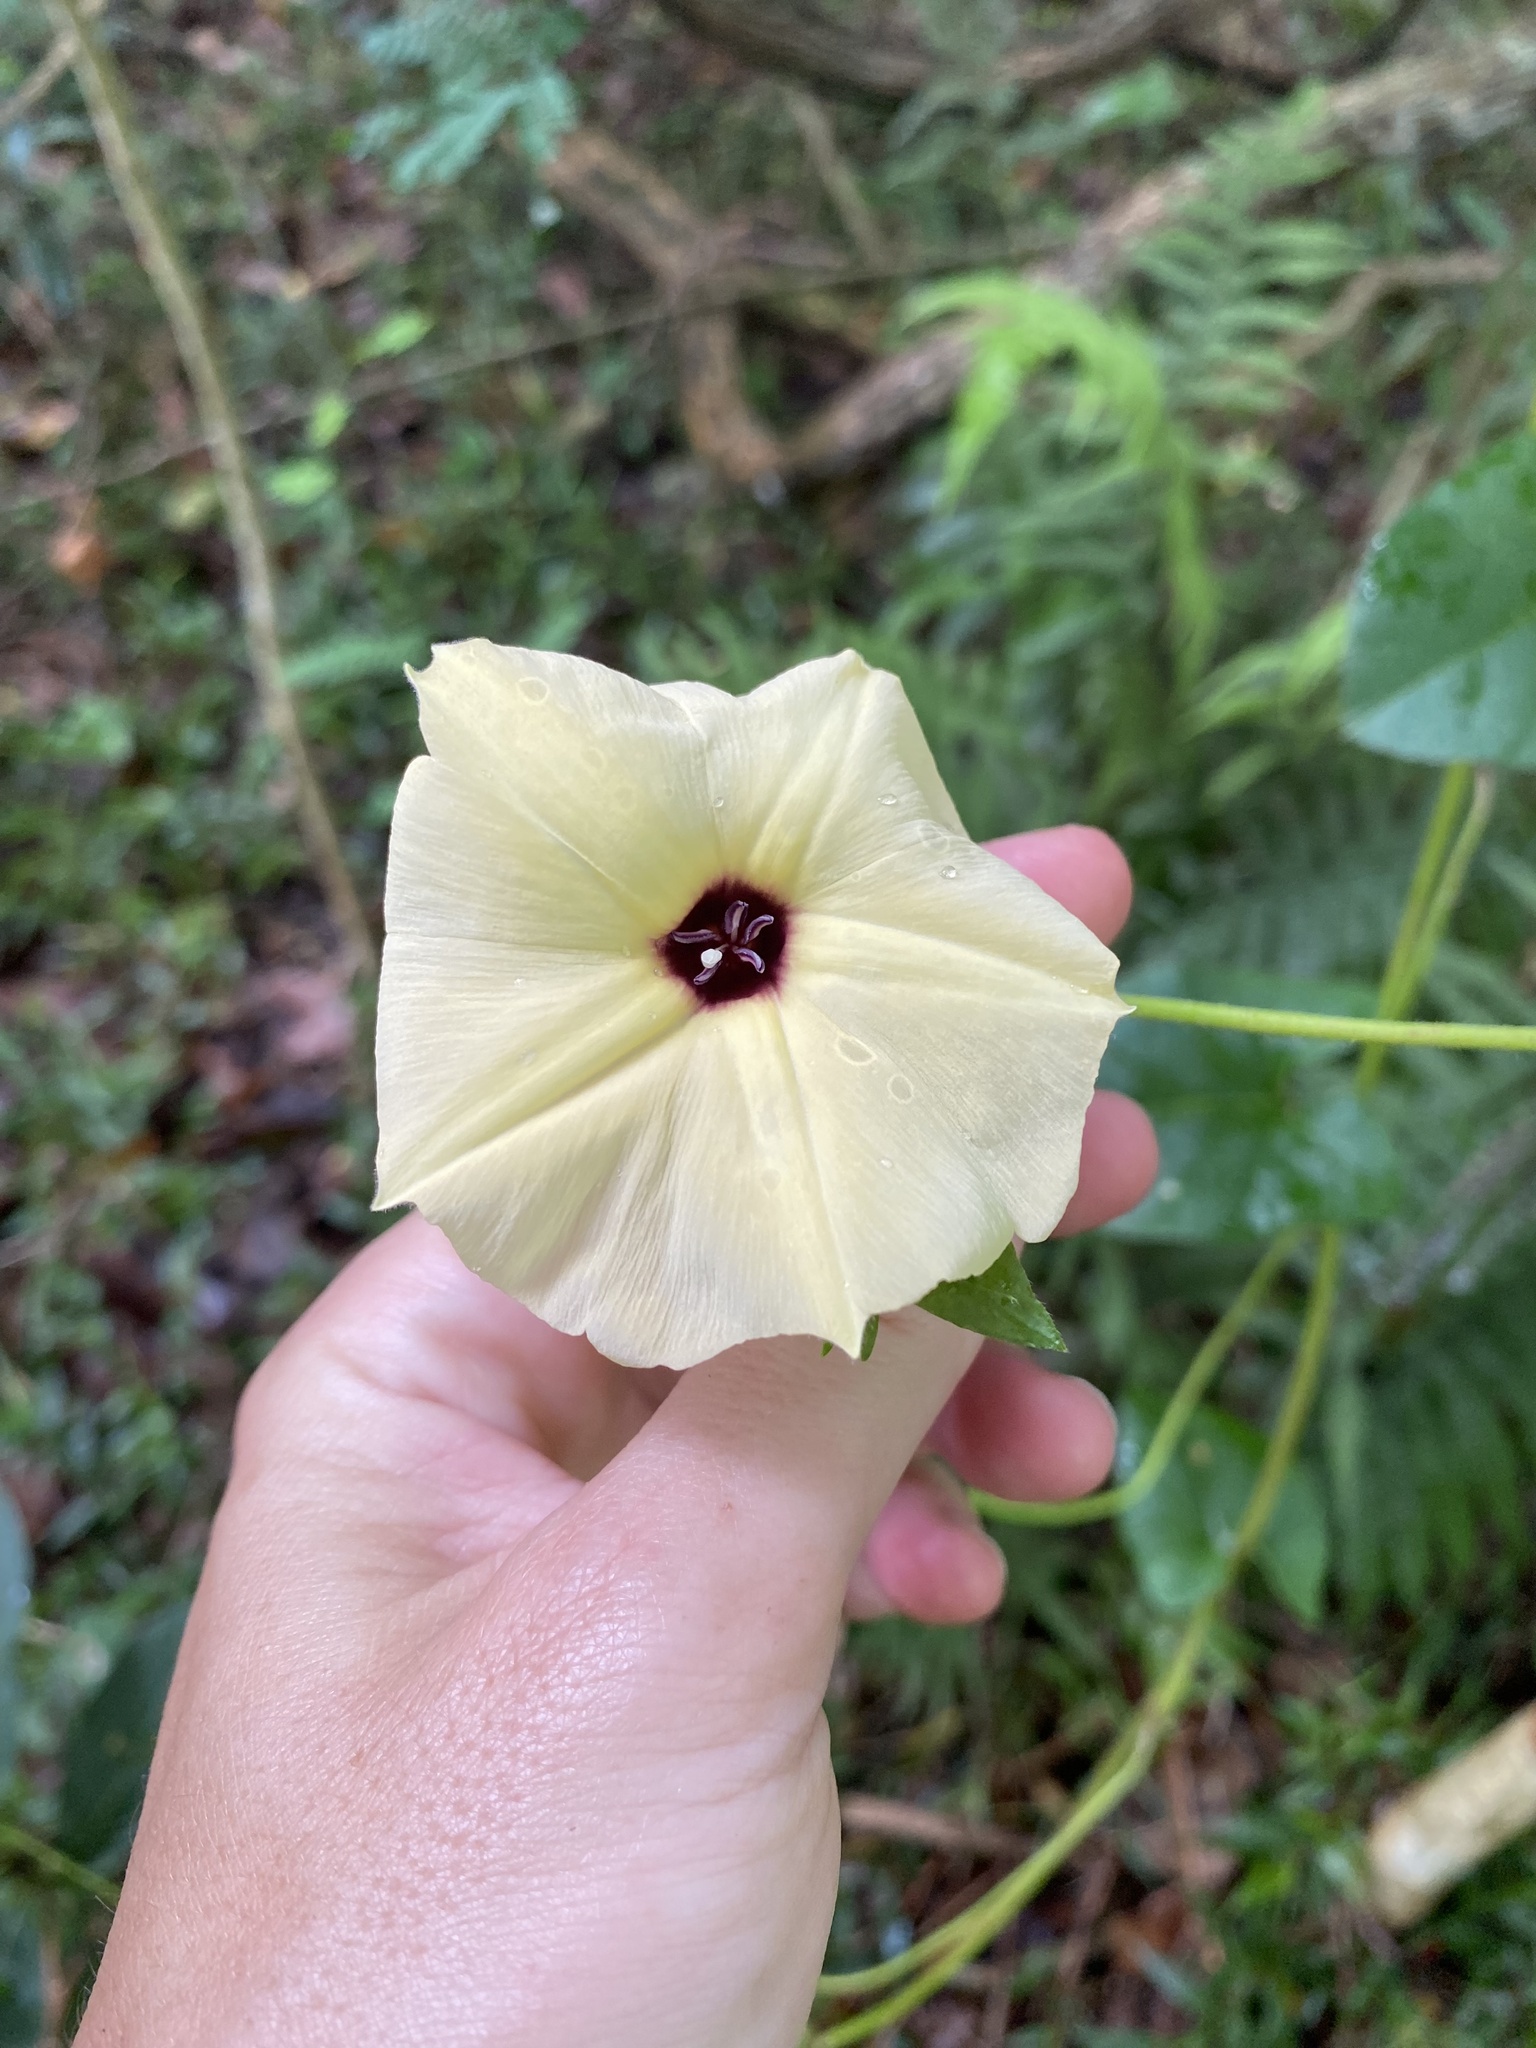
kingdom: Plantae
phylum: Tracheophyta
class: Magnoliopsida
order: Solanales
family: Convolvulaceae
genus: Hewittia
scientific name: Hewittia malabarica
